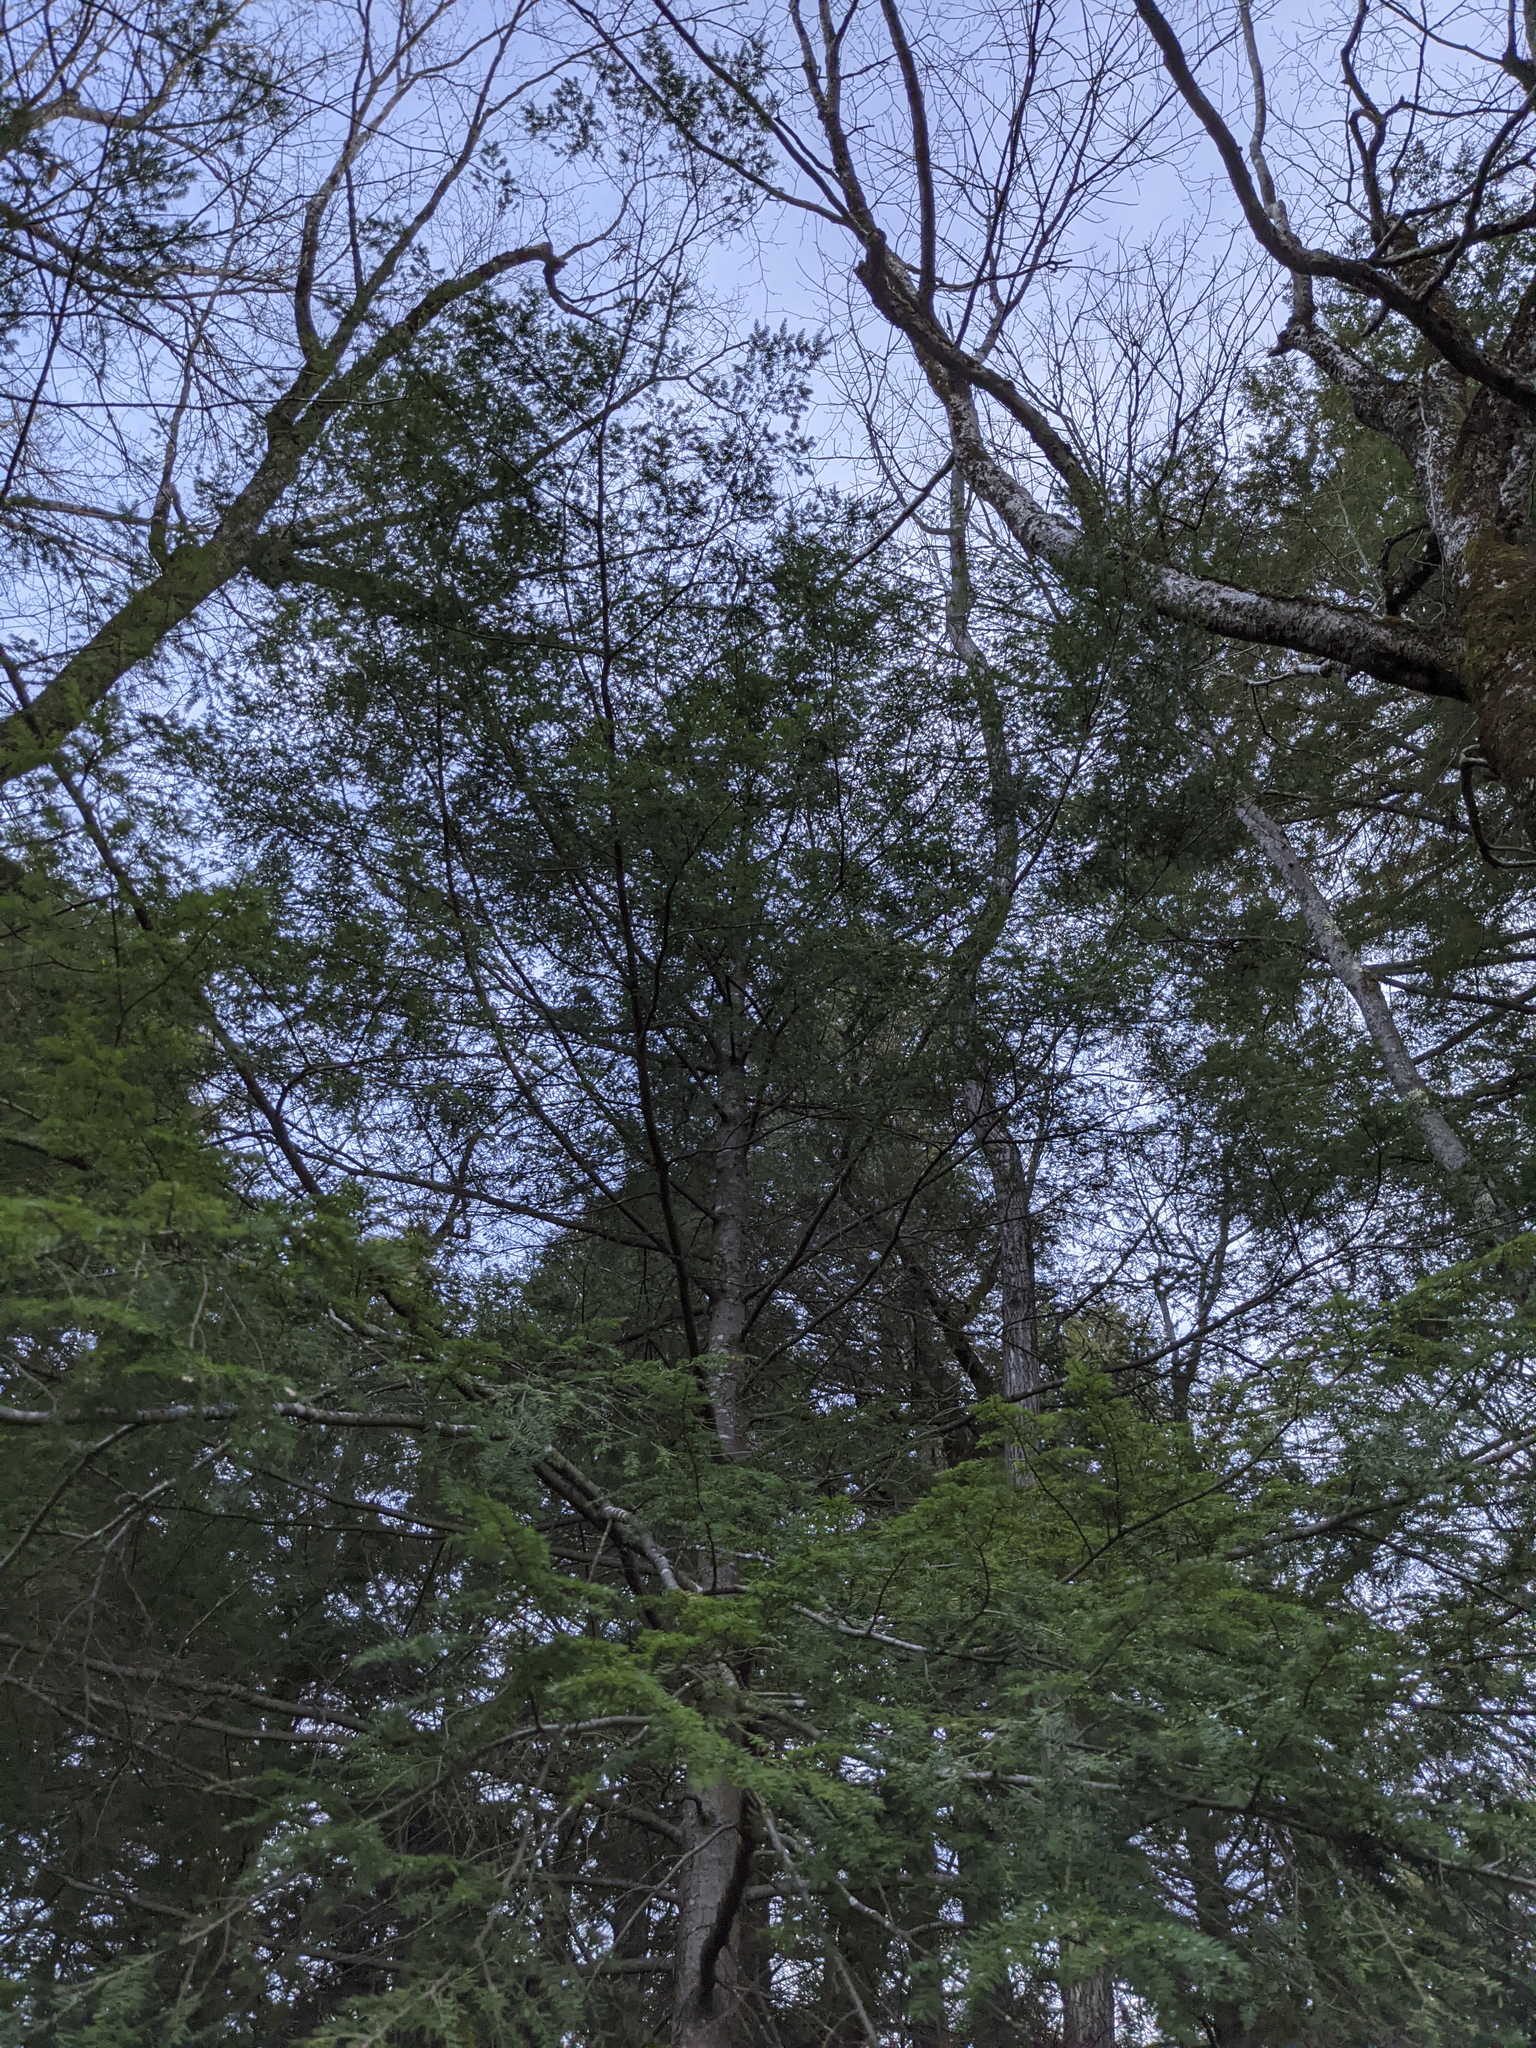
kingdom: Plantae
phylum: Tracheophyta
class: Pinopsida
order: Pinales
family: Pinaceae
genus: Tsuga
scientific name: Tsuga canadensis
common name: Eastern hemlock
